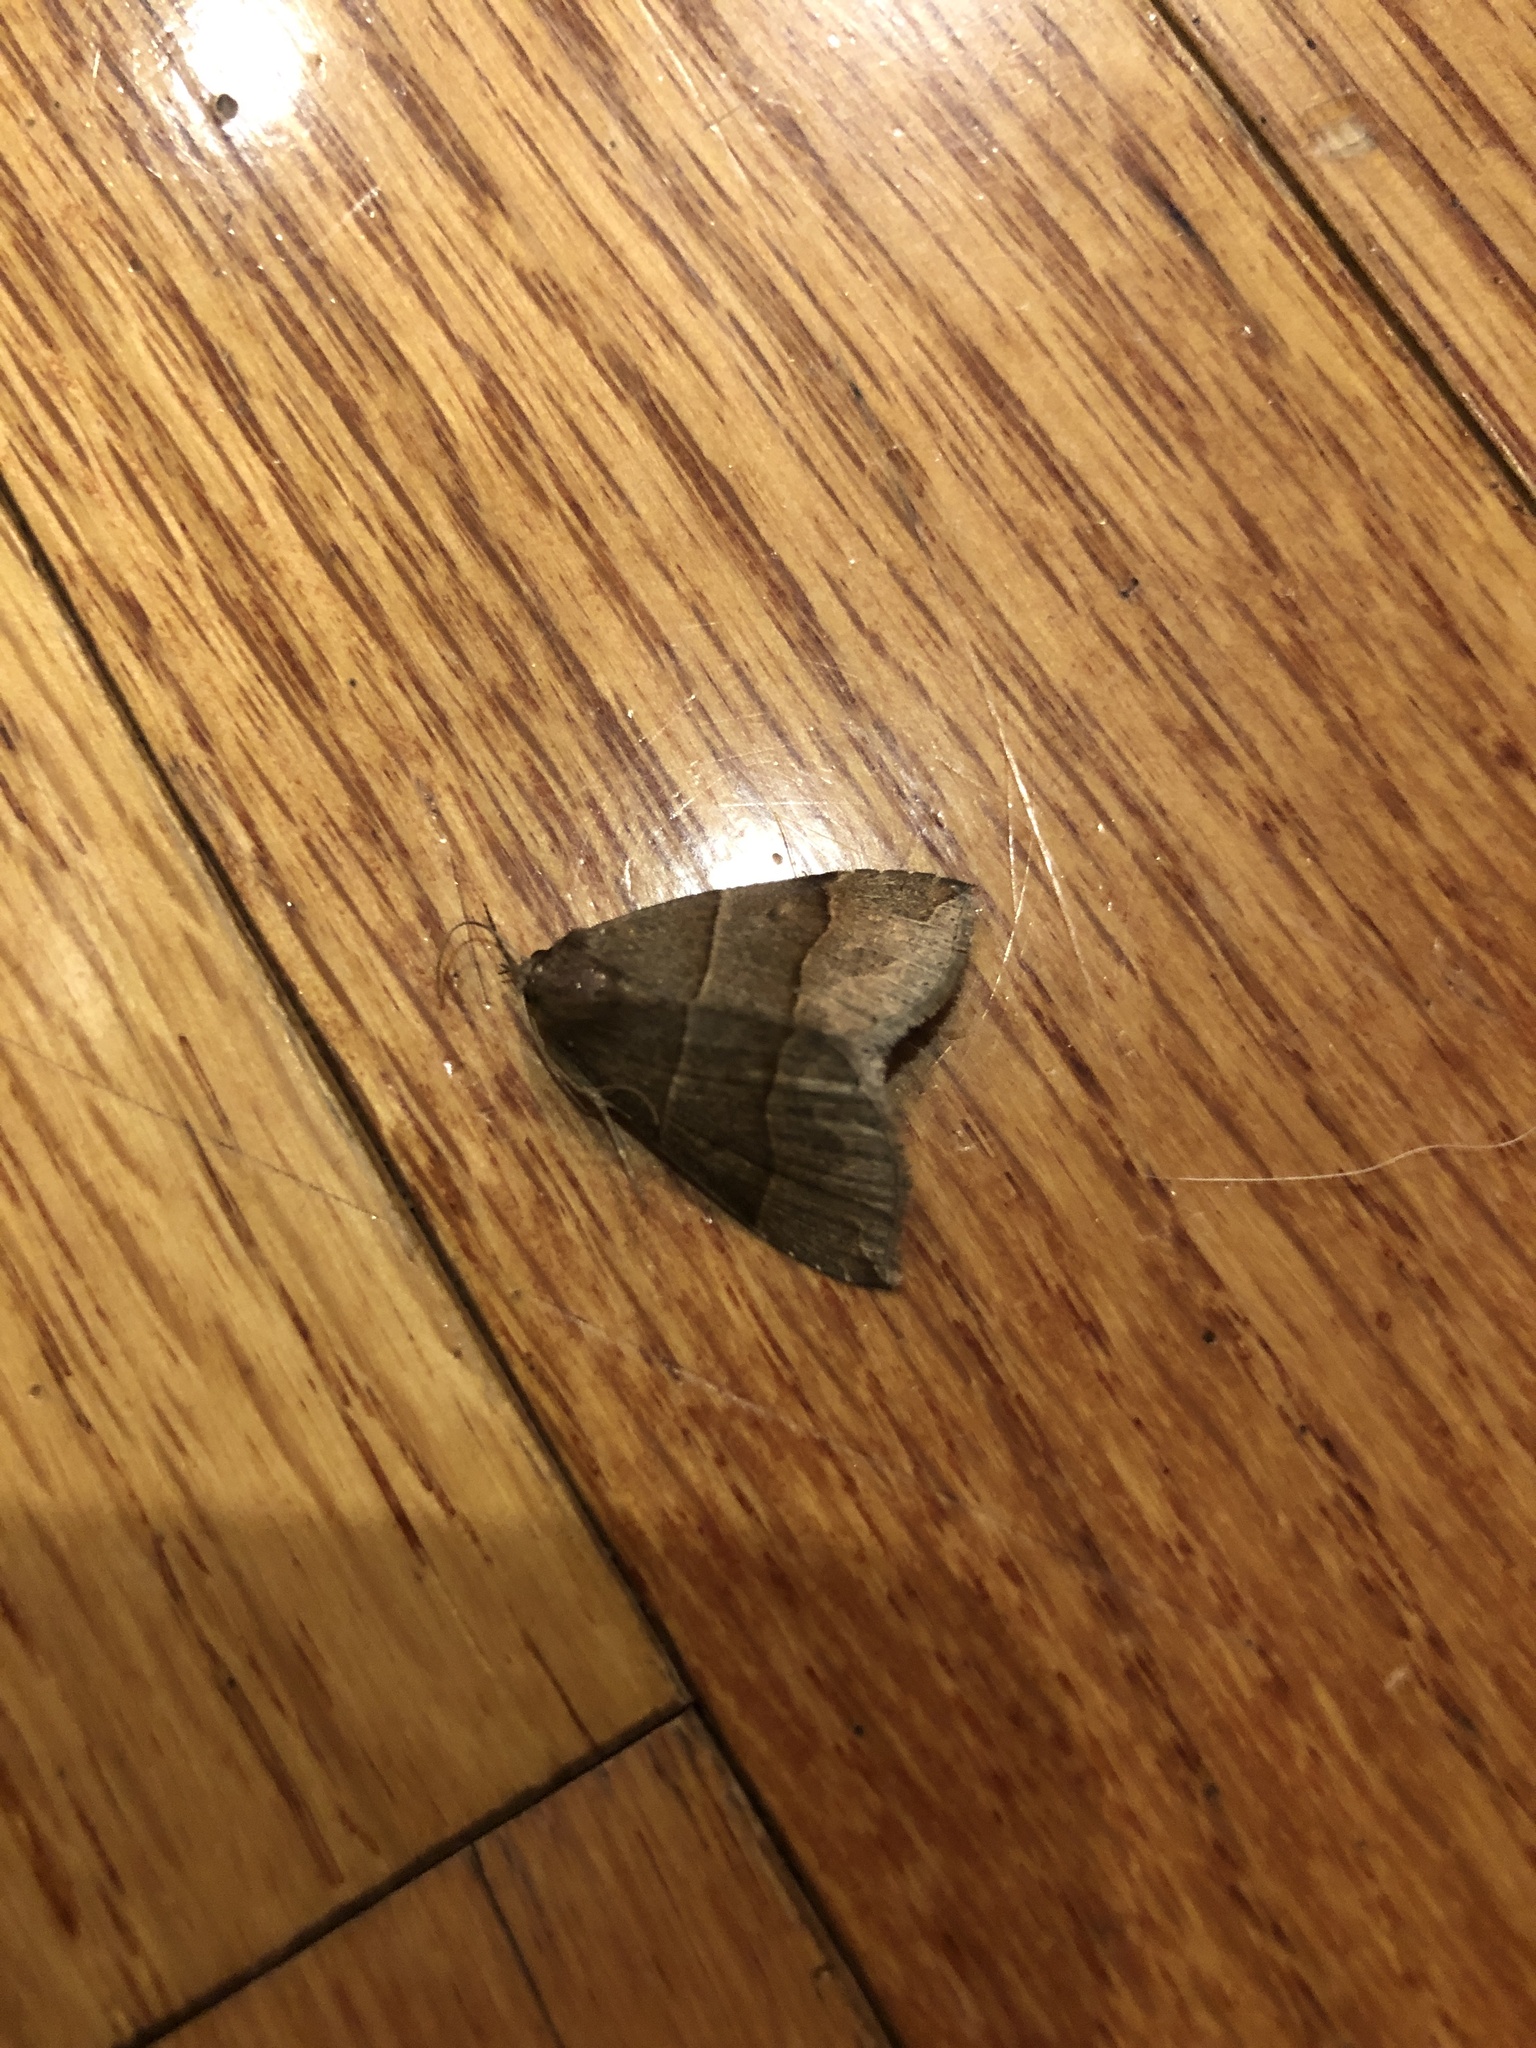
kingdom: Animalia
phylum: Arthropoda
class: Insecta
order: Lepidoptera
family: Erebidae
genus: Parallelia
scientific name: Parallelia bistriaris
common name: Maple looper moth
